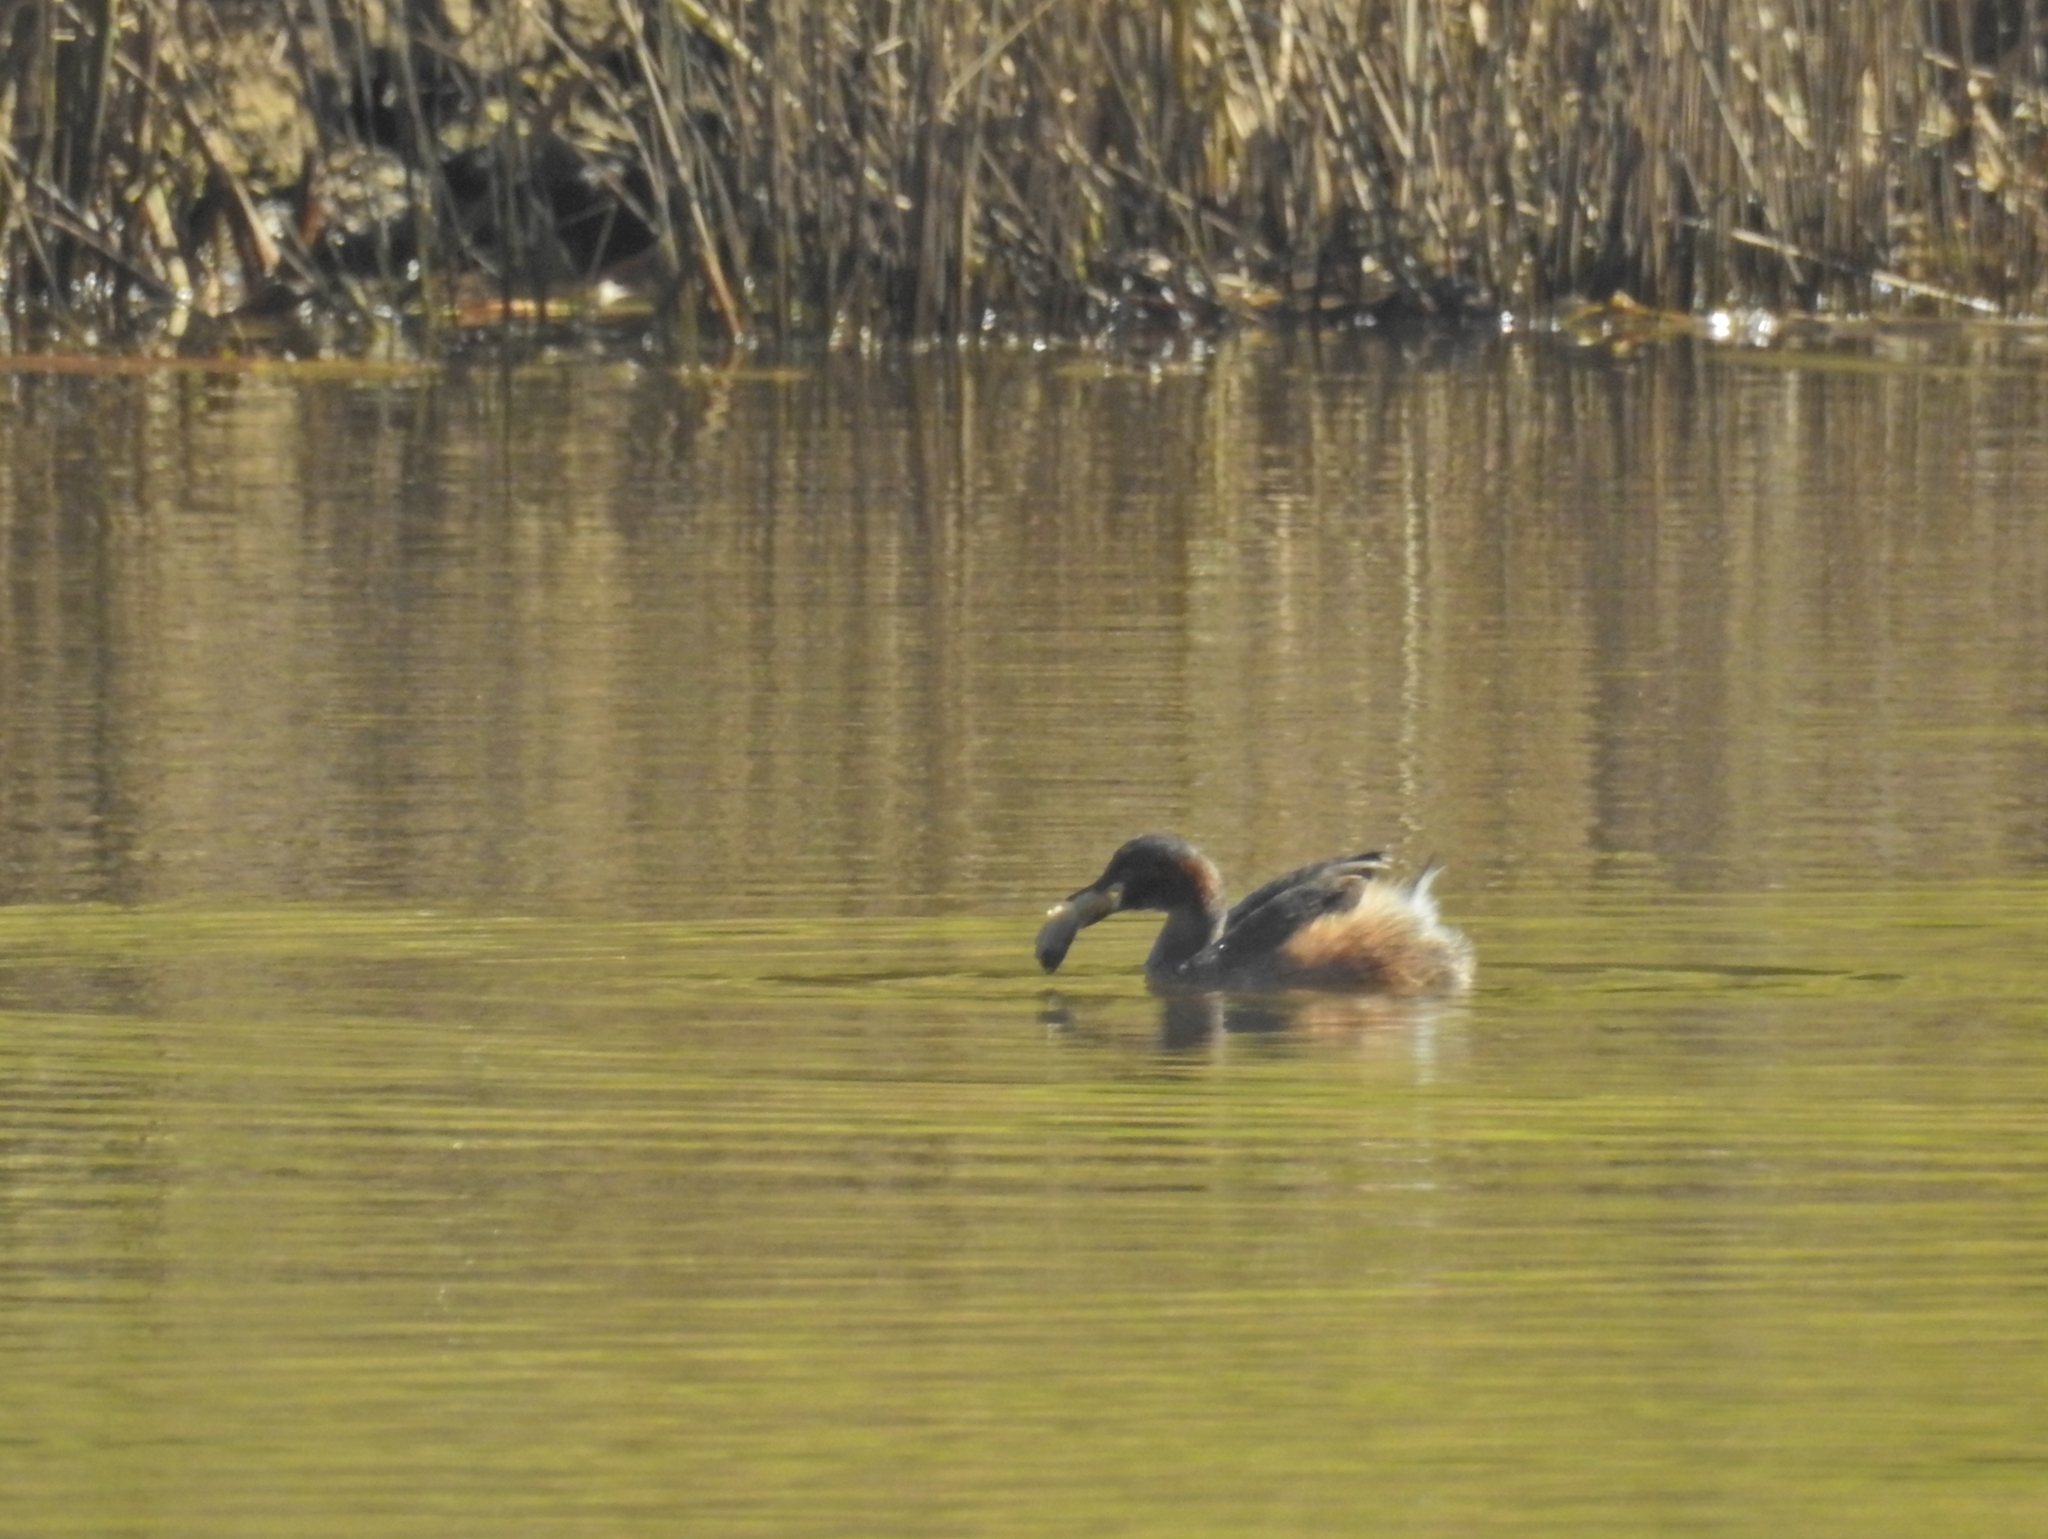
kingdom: Animalia
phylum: Chordata
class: Aves
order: Podicipediformes
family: Podicipedidae
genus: Tachybaptus
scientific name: Tachybaptus novaehollandiae
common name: Australasian grebe
